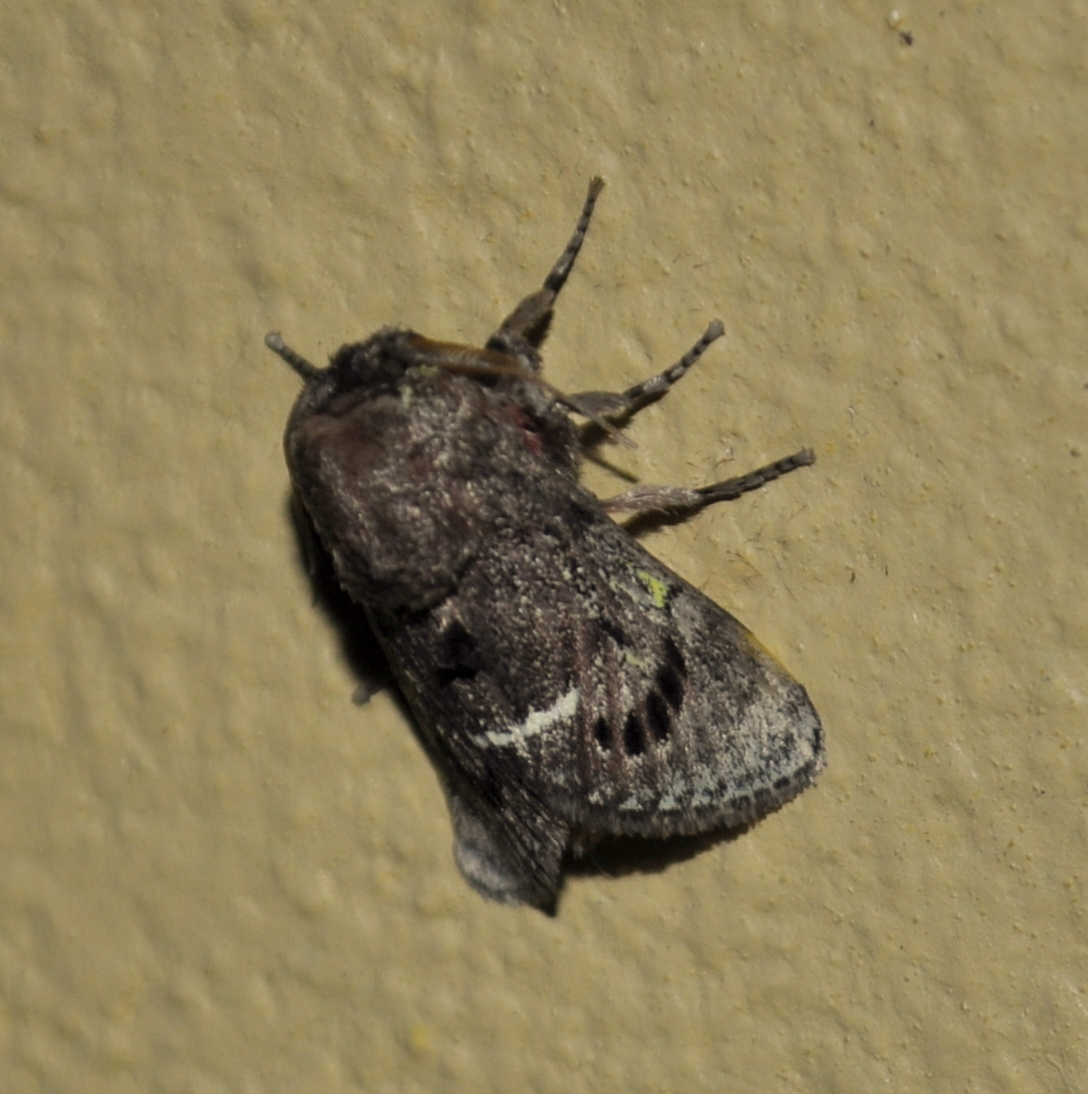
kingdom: Animalia
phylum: Arthropoda
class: Insecta
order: Lepidoptera
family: Aididae
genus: Xenarchus
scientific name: Xenarchus carmen
